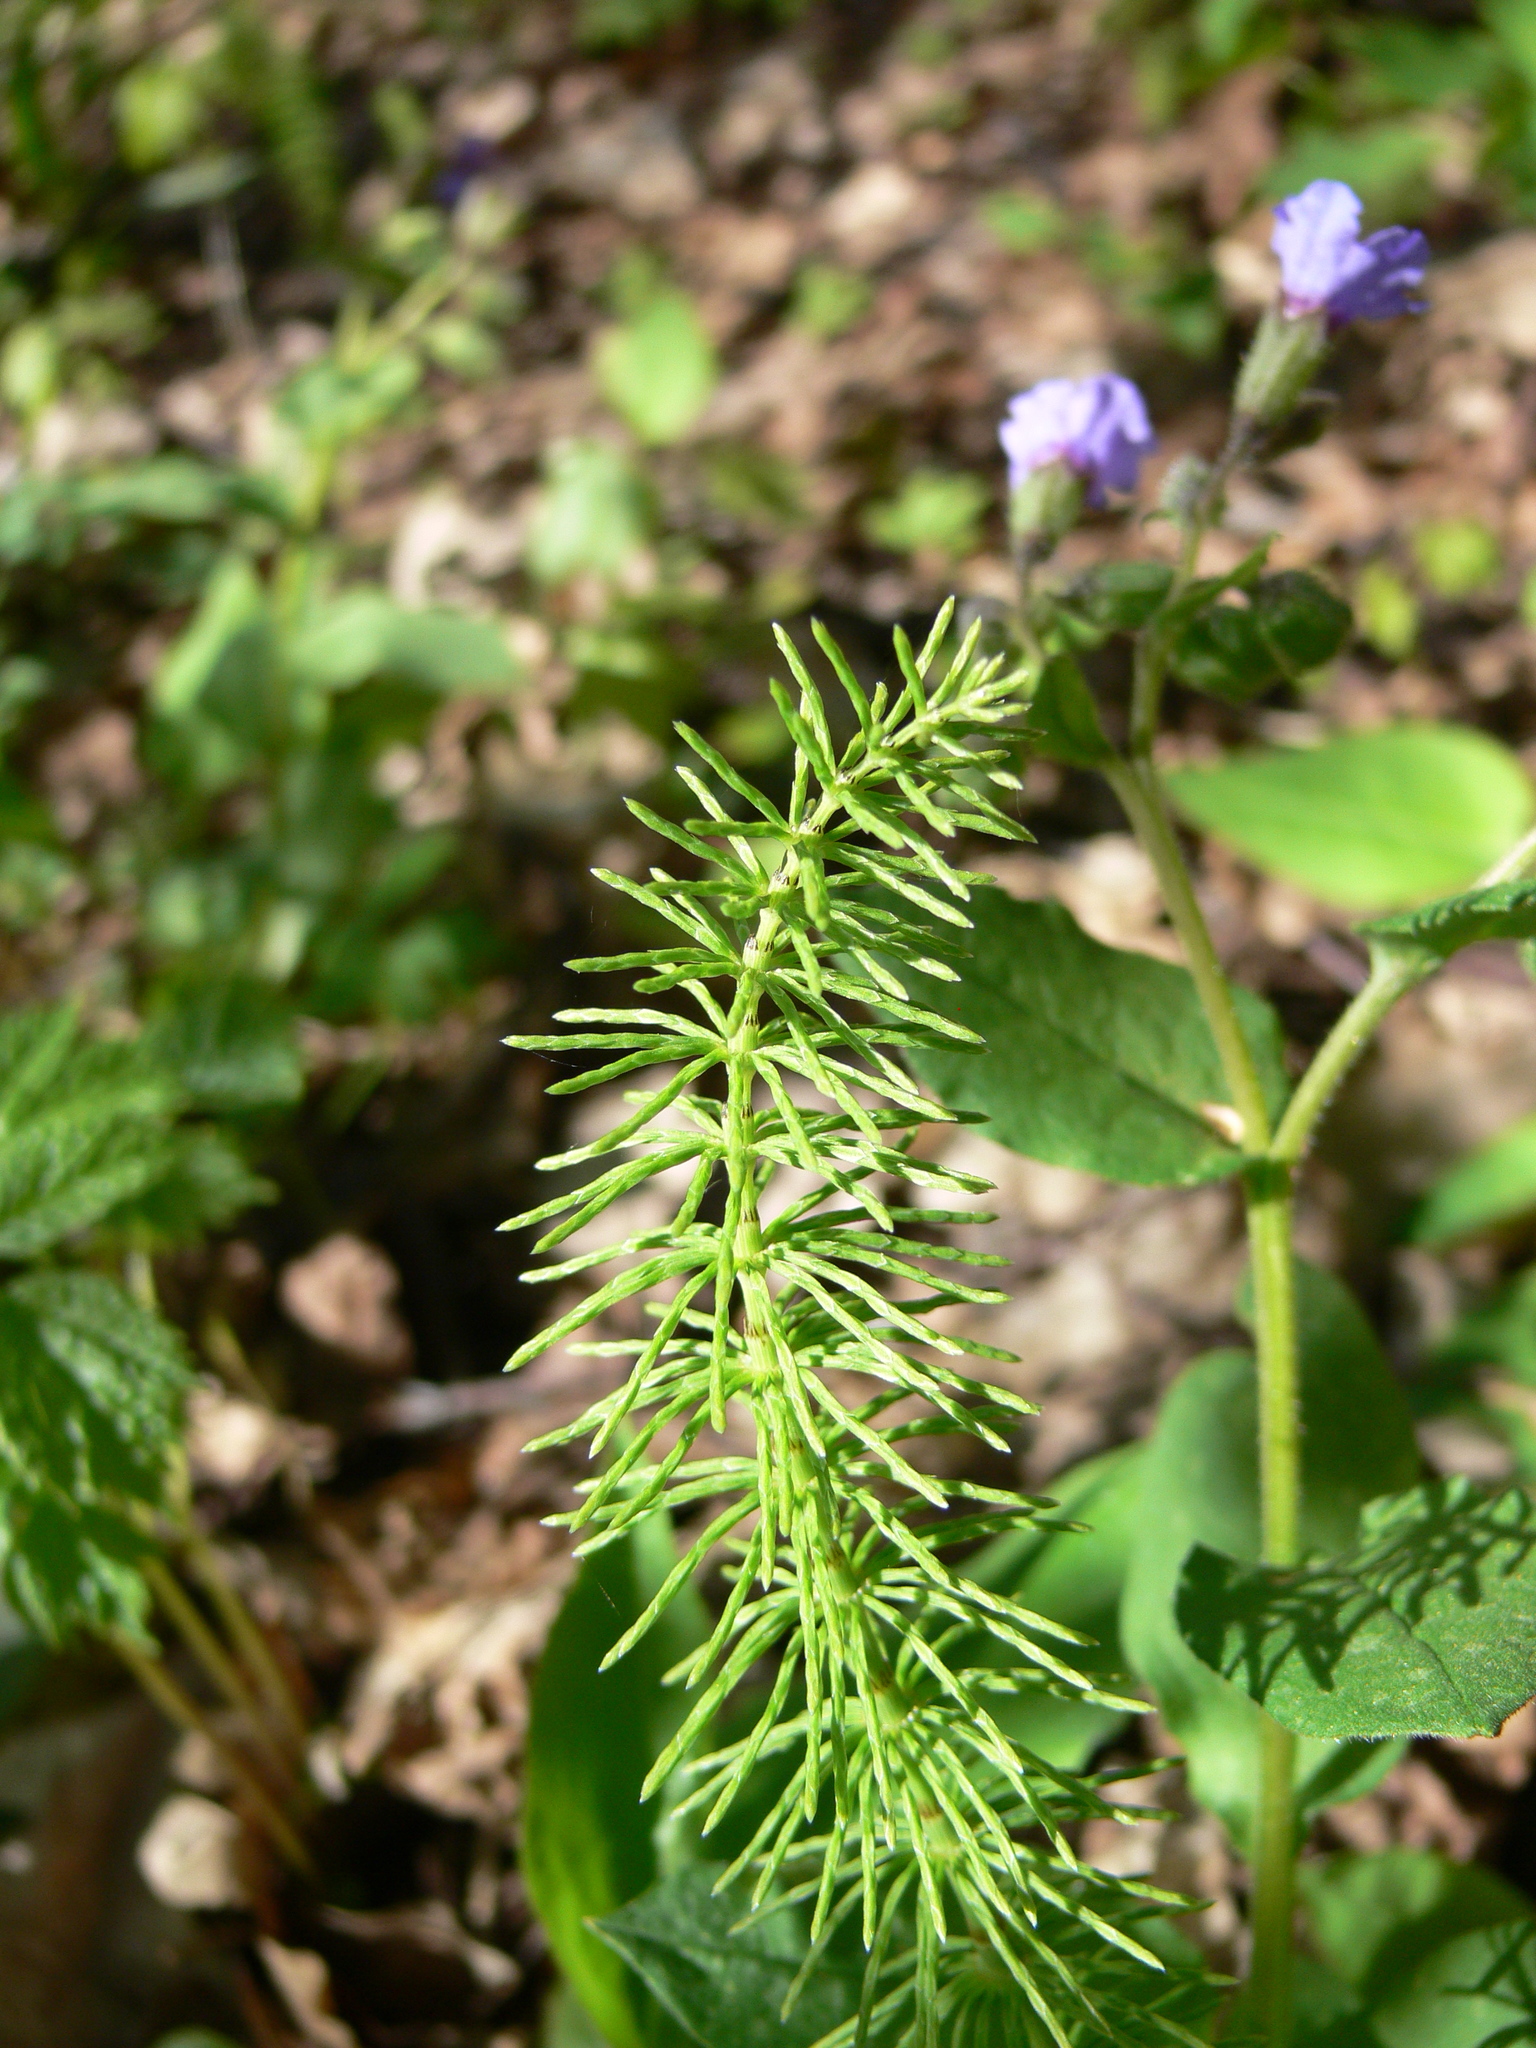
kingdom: Plantae
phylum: Tracheophyta
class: Polypodiopsida
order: Equisetales
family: Equisetaceae
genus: Equisetum
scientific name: Equisetum pratense
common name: Meadow horsetail
